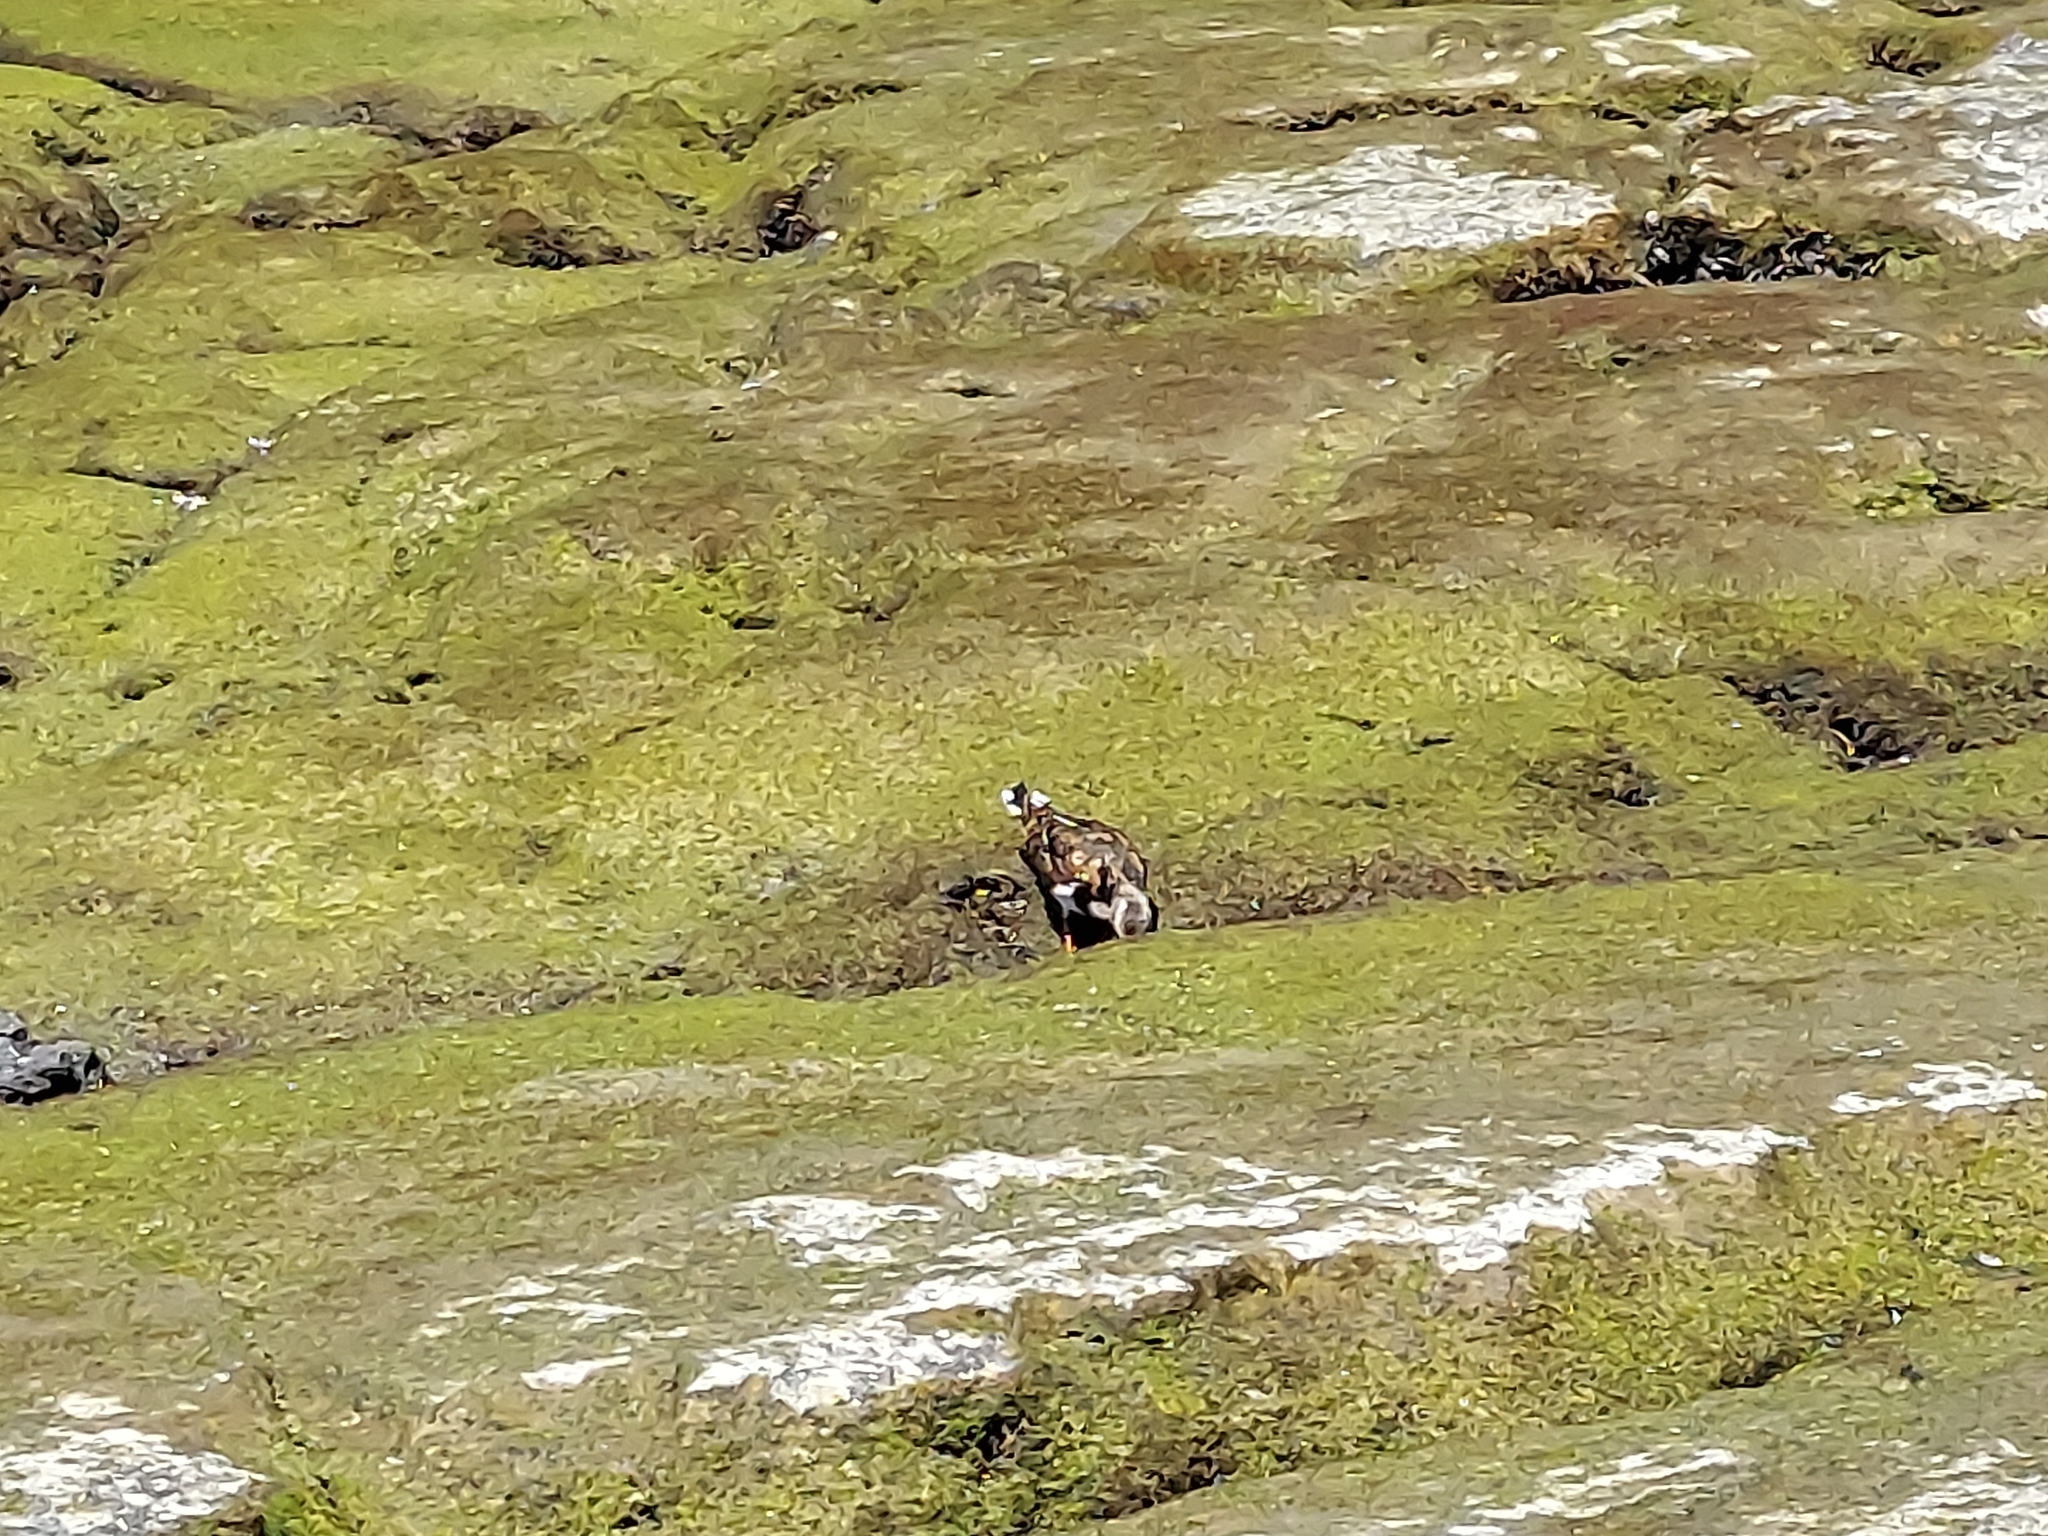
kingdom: Animalia
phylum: Chordata
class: Aves
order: Charadriiformes
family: Scolopacidae
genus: Arenaria
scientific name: Arenaria interpres
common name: Ruddy turnstone
